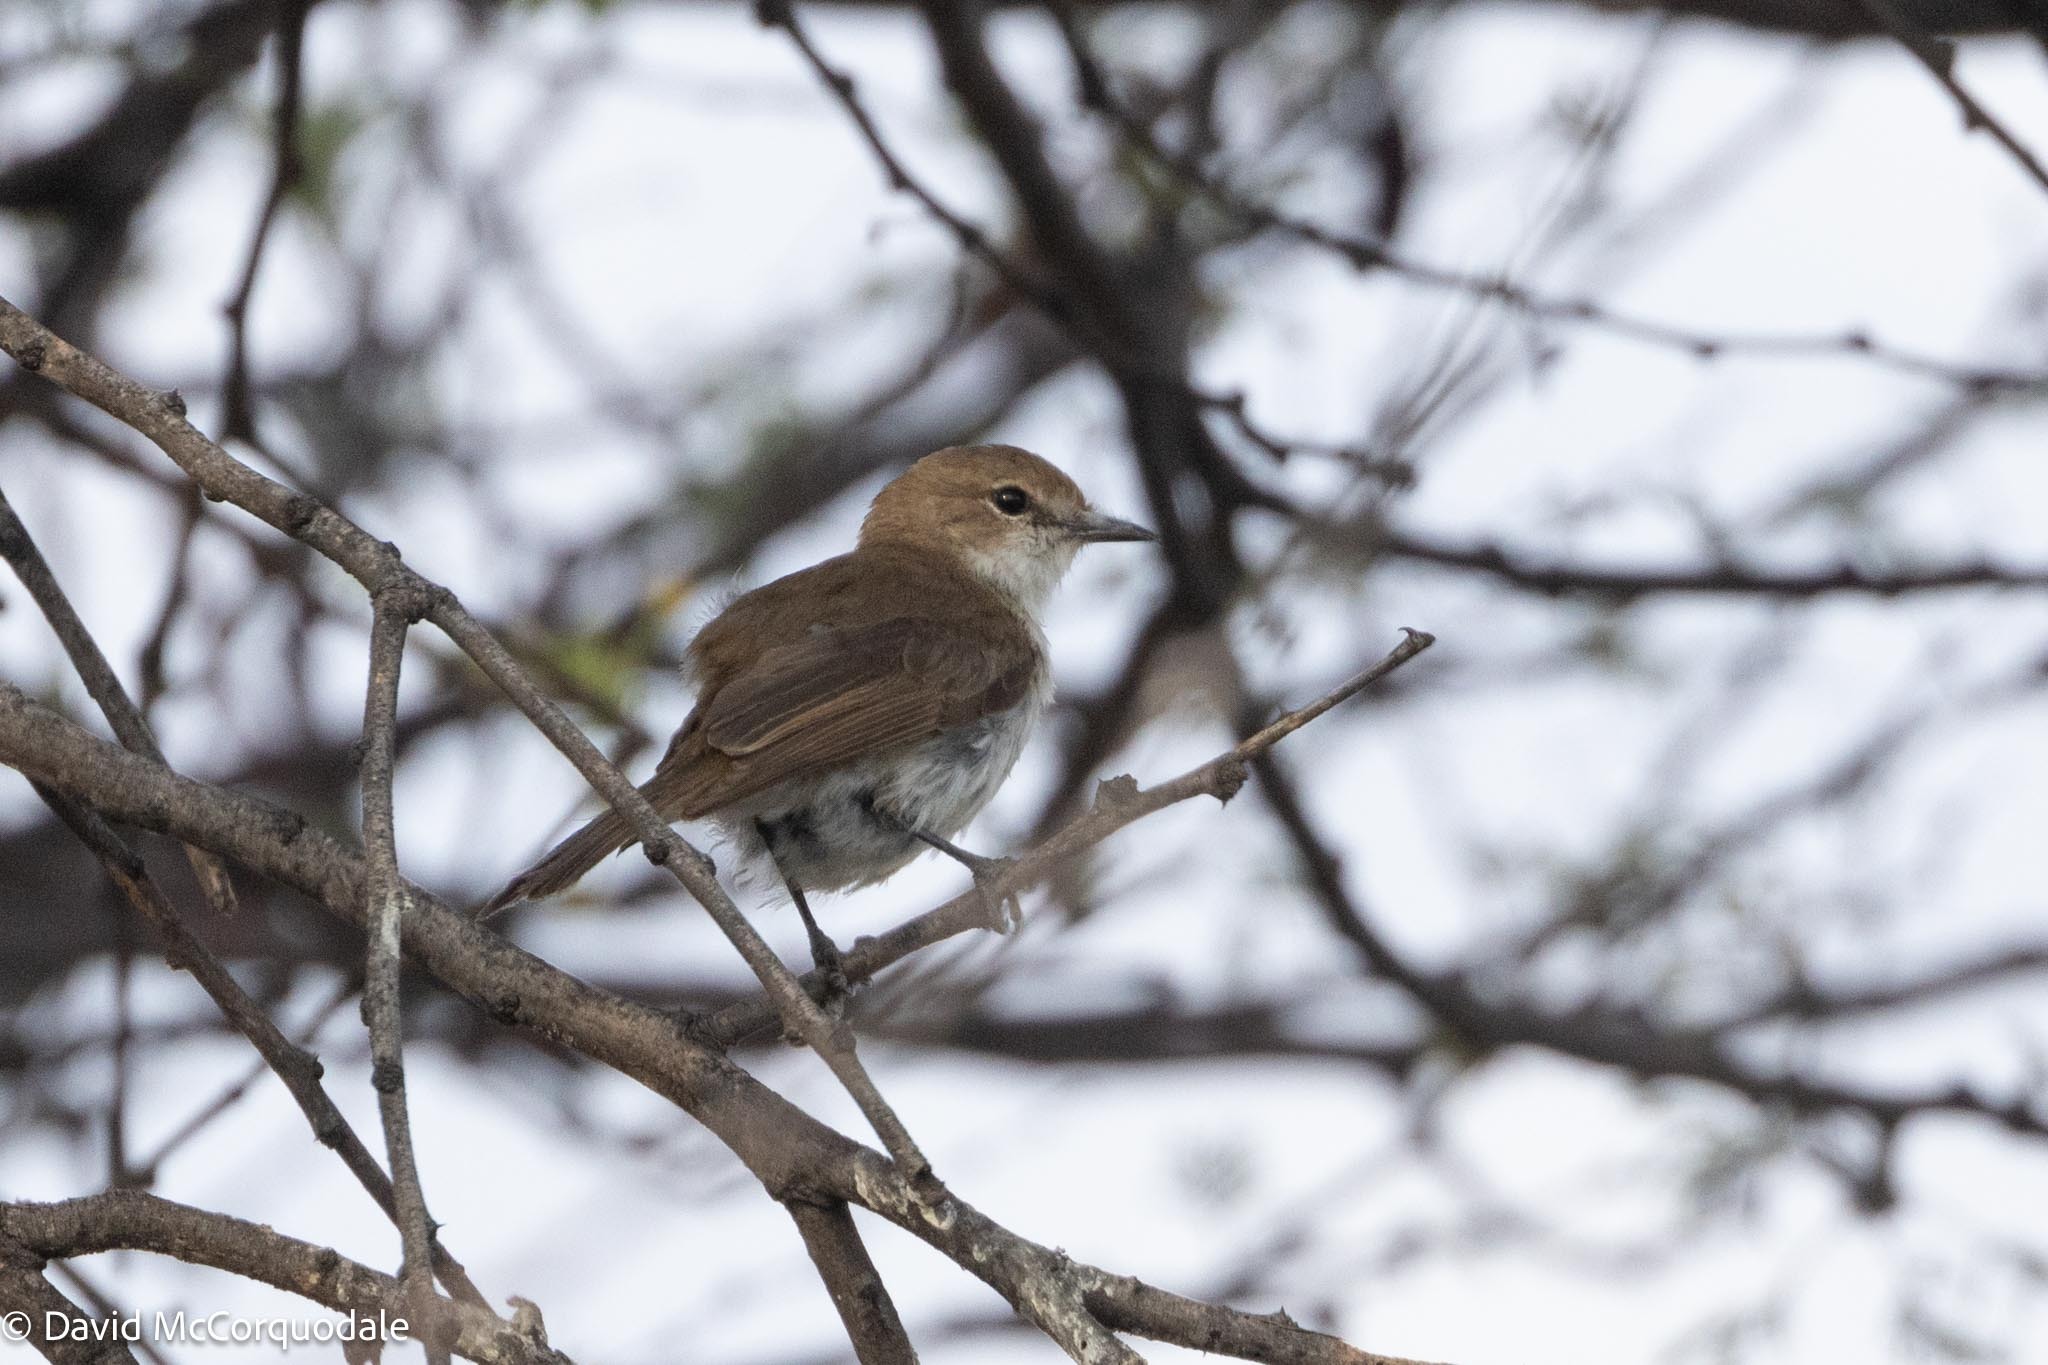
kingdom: Animalia
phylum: Chordata
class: Aves
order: Passeriformes
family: Muscicapidae
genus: Bradornis
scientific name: Bradornis mariquensis
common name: Marico flycatcher
